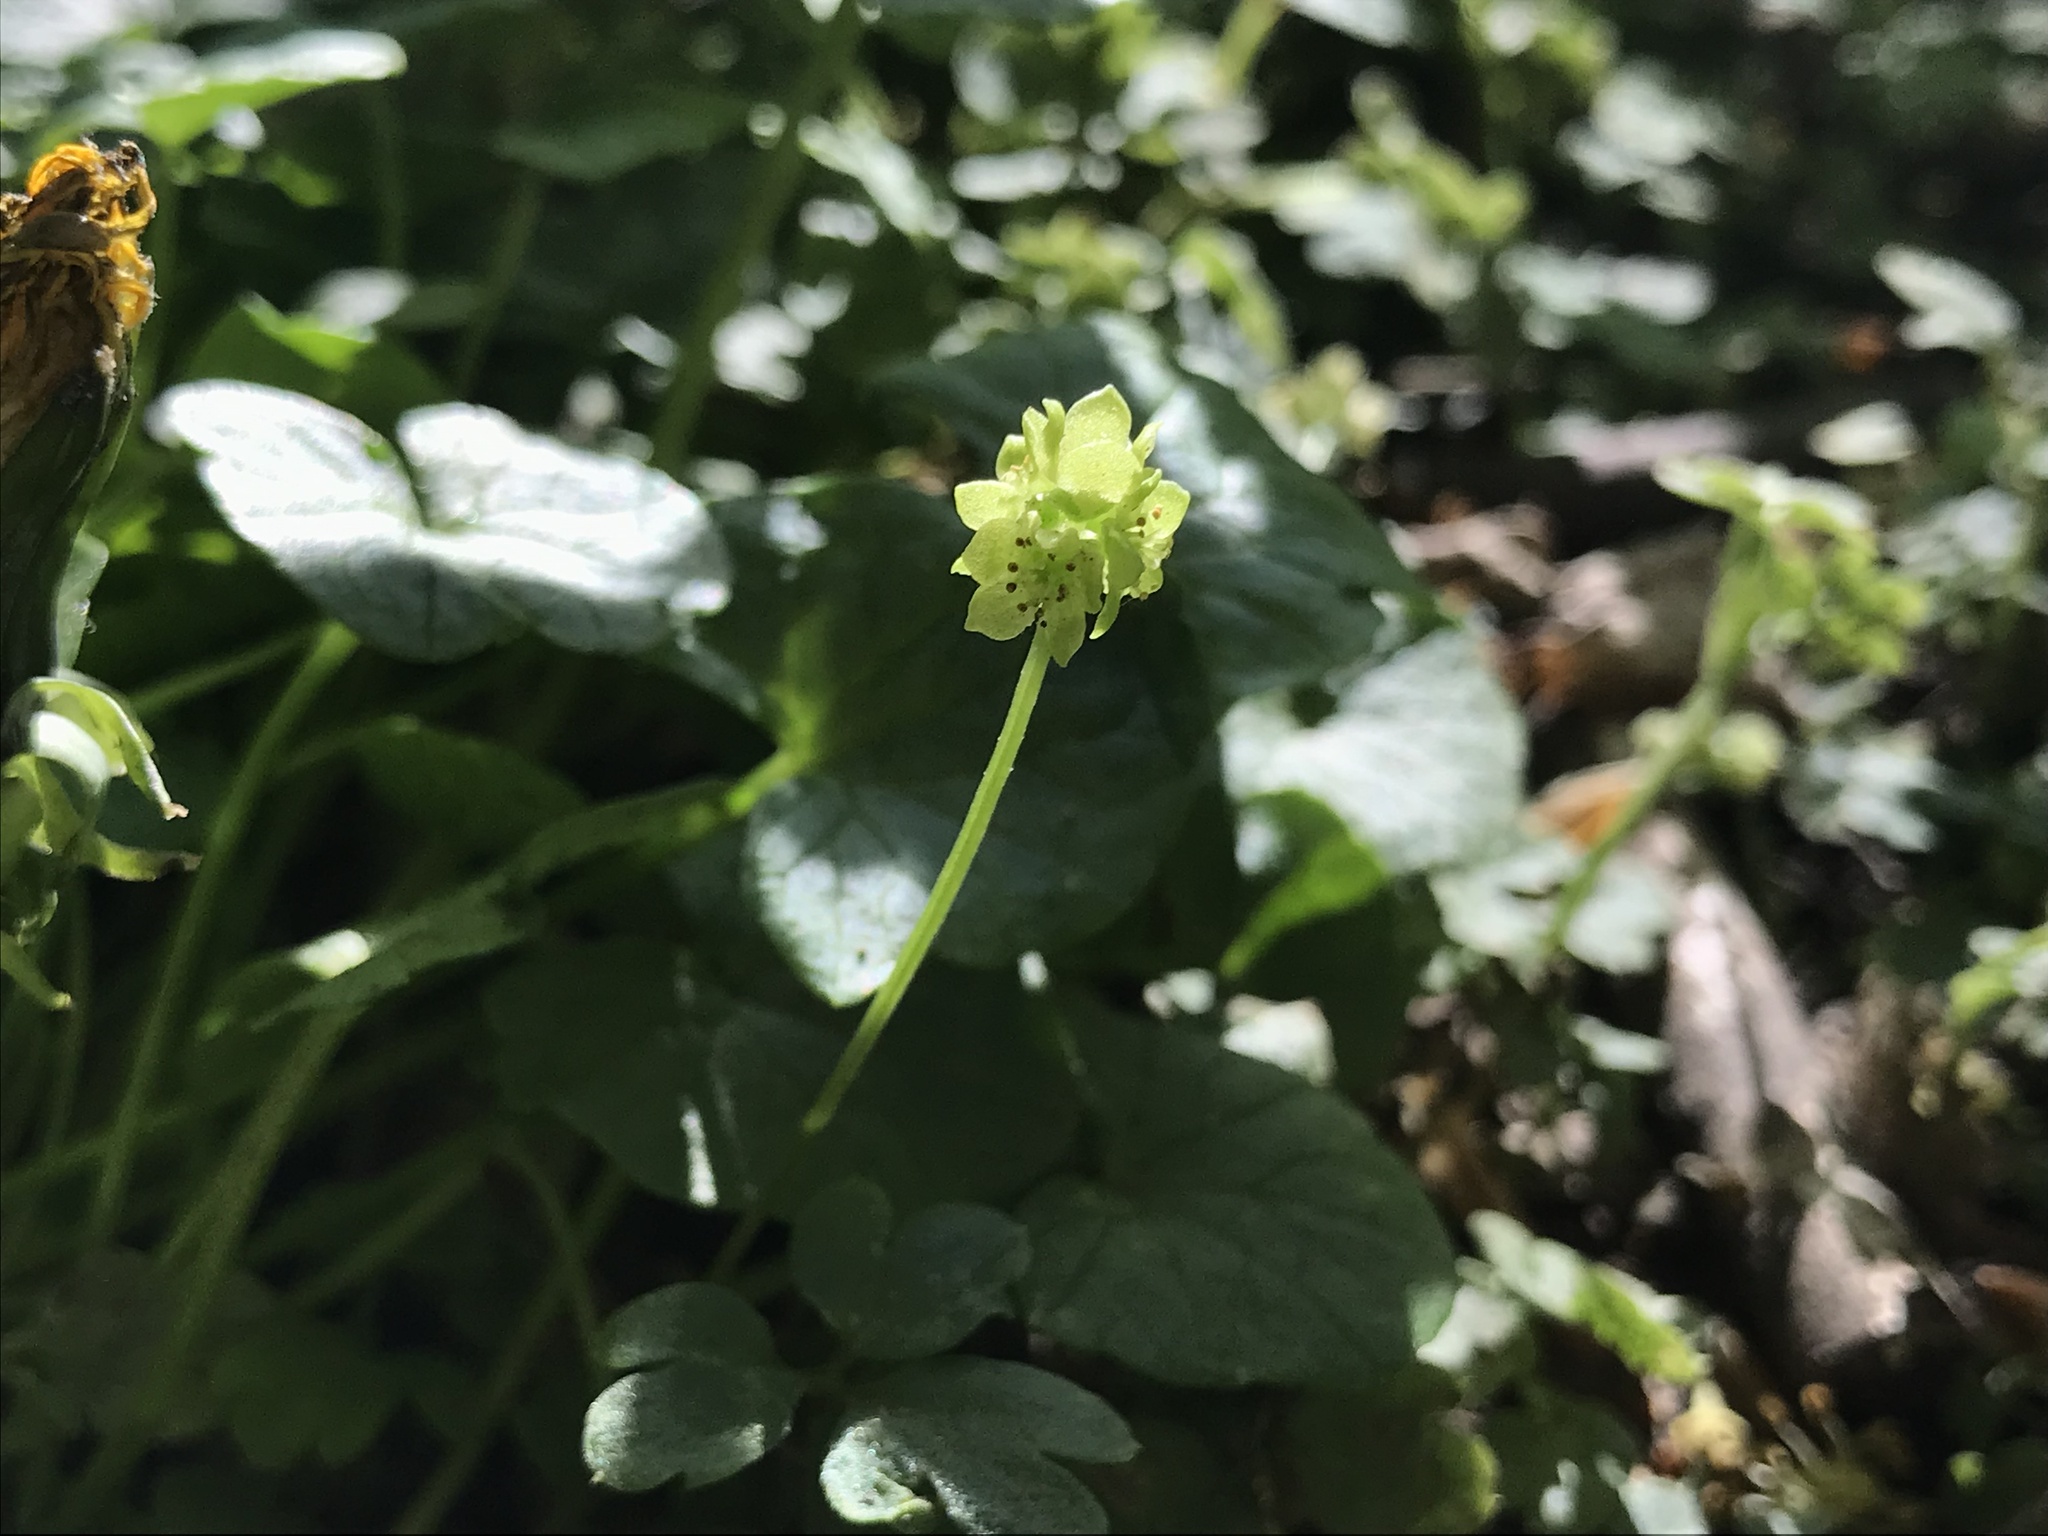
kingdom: Plantae
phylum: Tracheophyta
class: Magnoliopsida
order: Dipsacales
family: Viburnaceae
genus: Adoxa
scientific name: Adoxa moschatellina
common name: Moschatel
